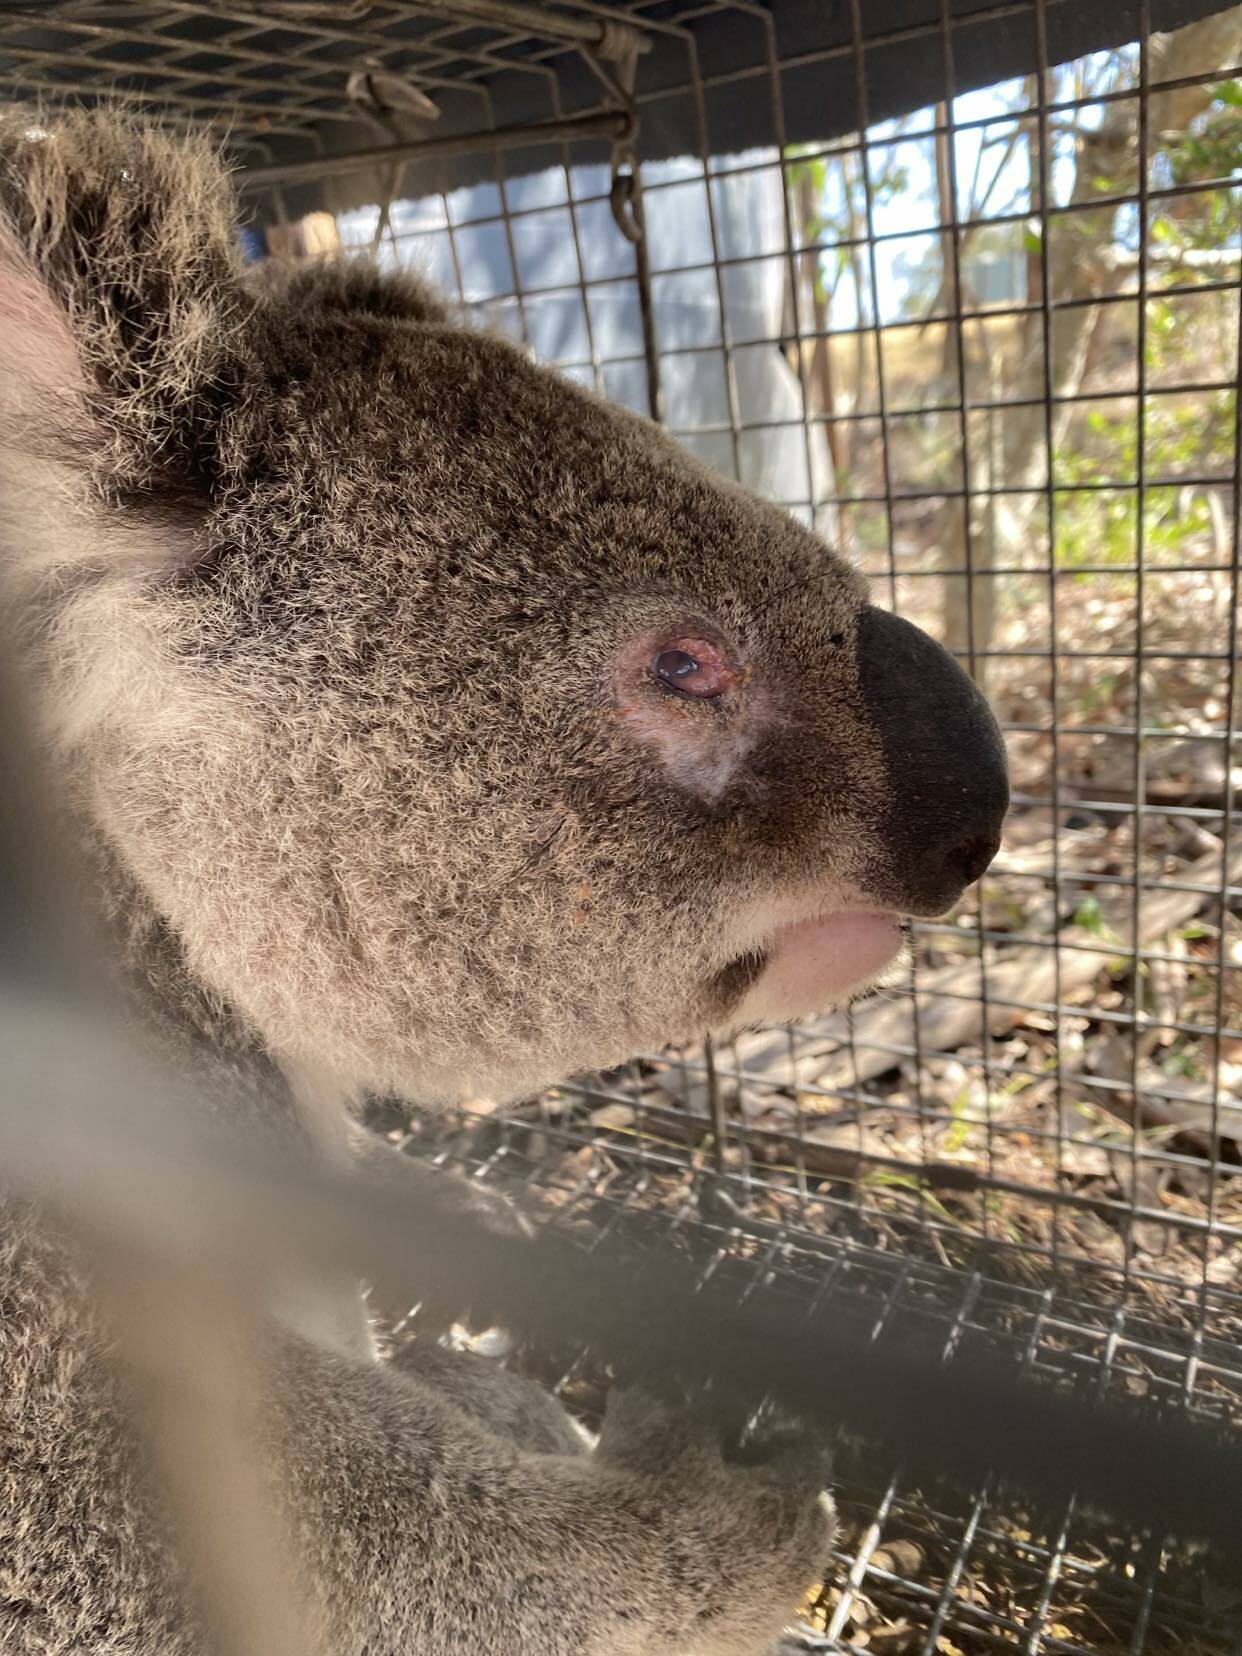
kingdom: Animalia
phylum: Chordata
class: Mammalia
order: Diprotodontia
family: Phascolarctidae
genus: Phascolarctos
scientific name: Phascolarctos cinereus
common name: Koala
